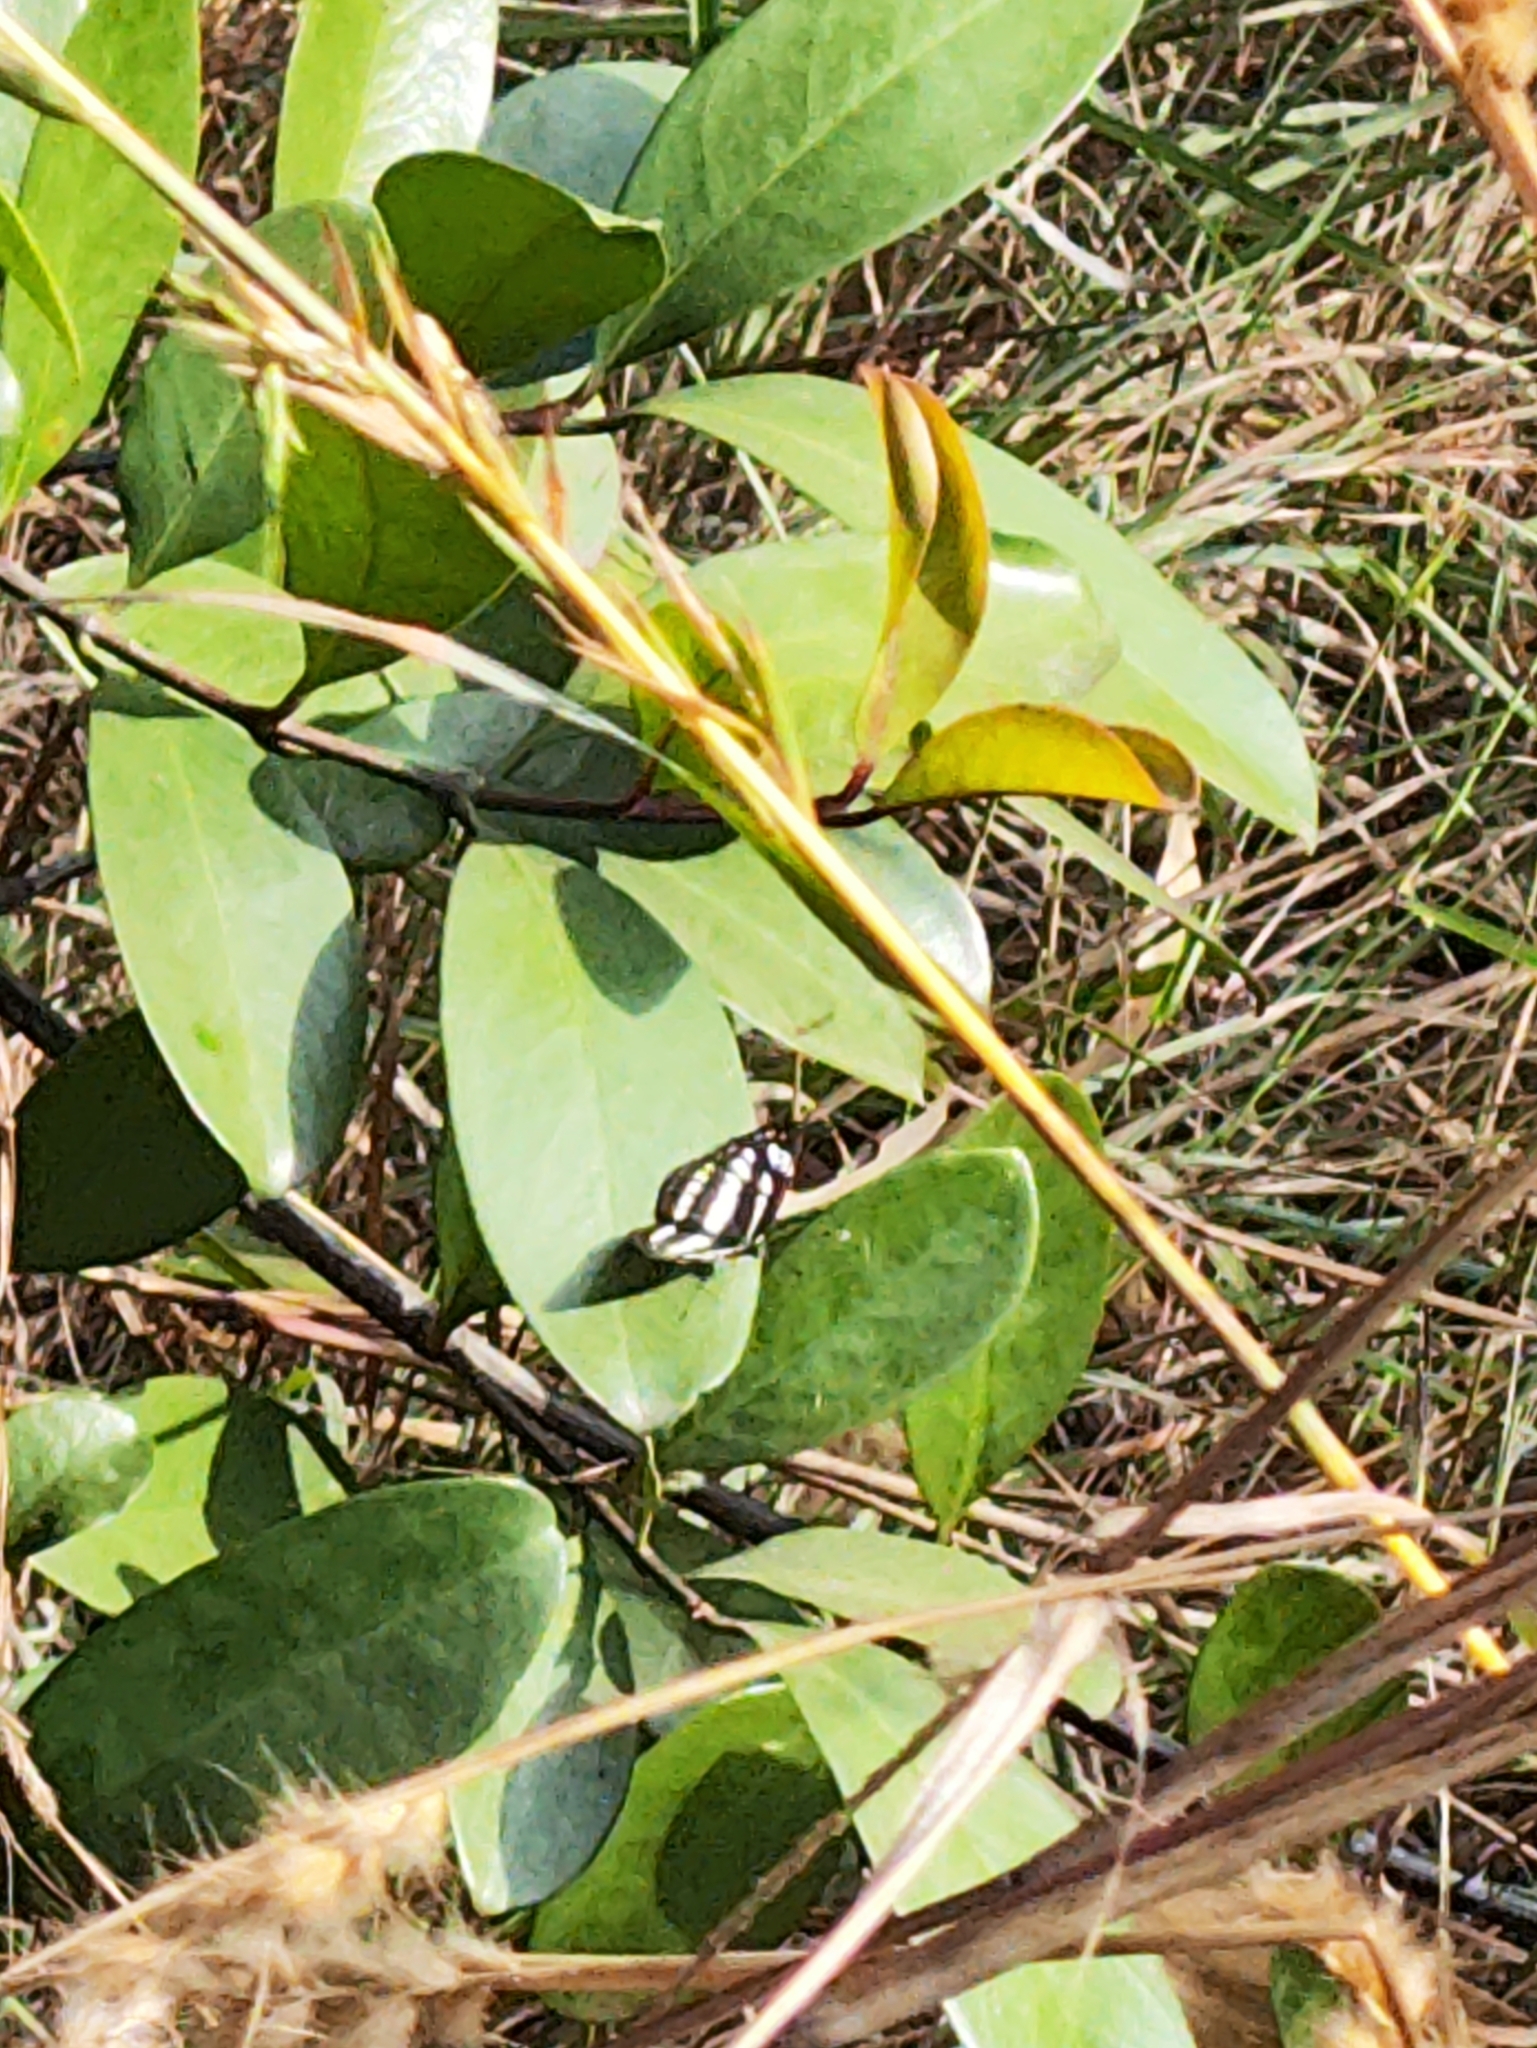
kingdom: Animalia
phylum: Arthropoda
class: Insecta
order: Lepidoptera
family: Nymphalidae
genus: Neptis
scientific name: Neptis hylas
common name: Common sailer
